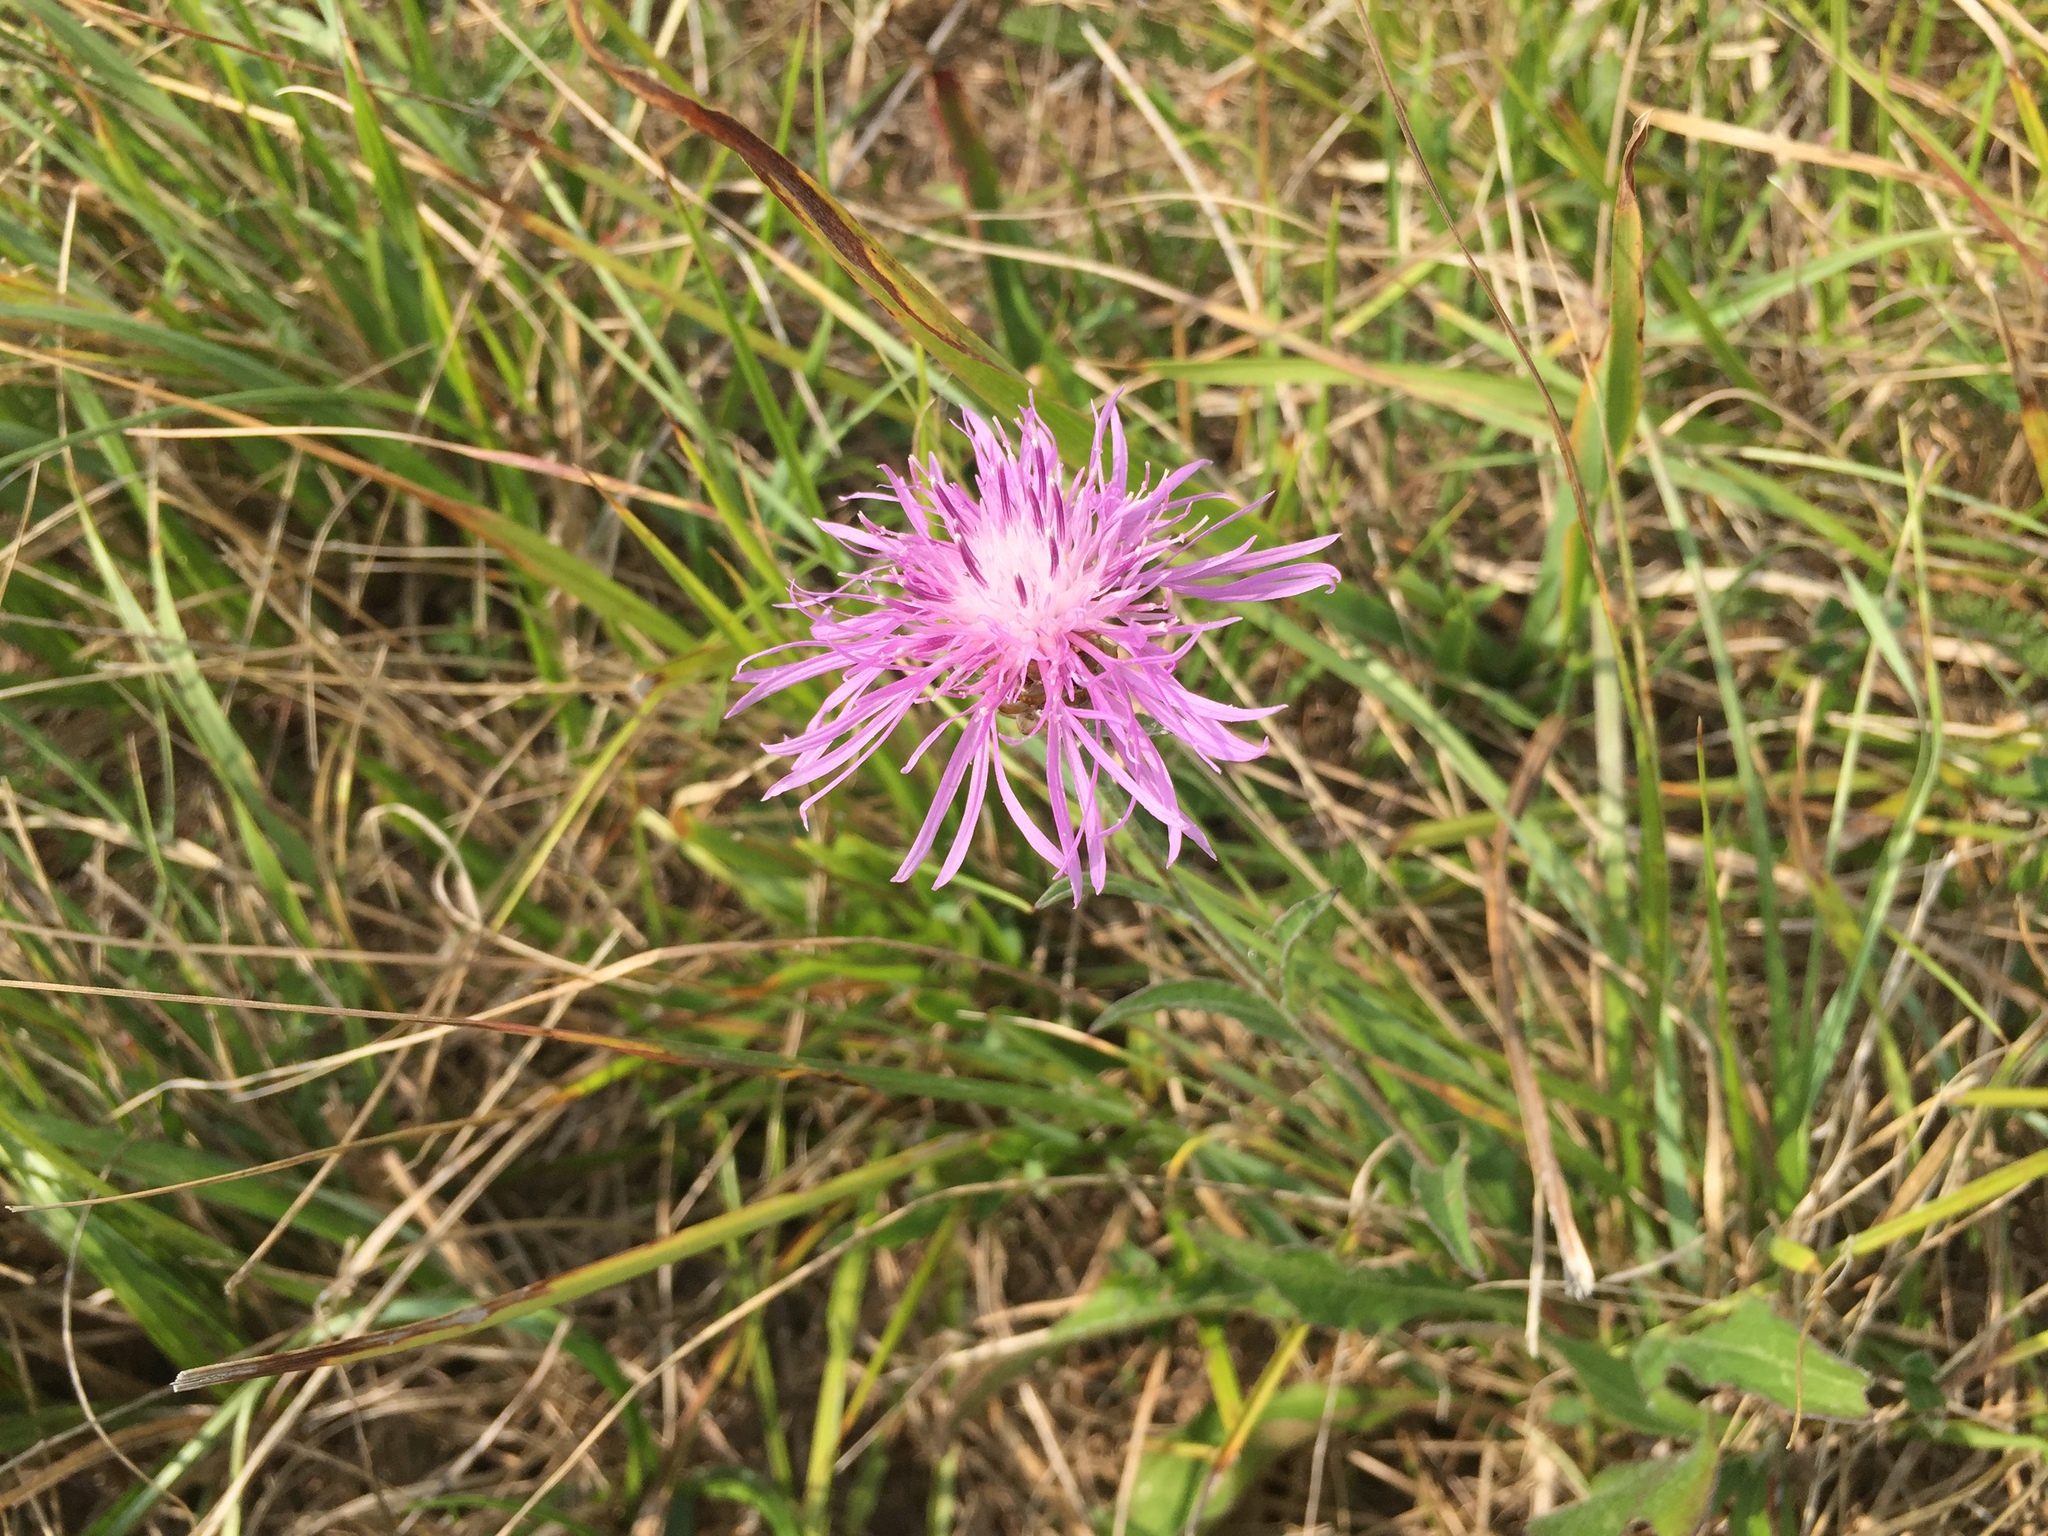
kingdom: Plantae
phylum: Tracheophyta
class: Magnoliopsida
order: Asterales
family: Asteraceae
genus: Centaurea
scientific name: Centaurea jacea
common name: Brown knapweed
